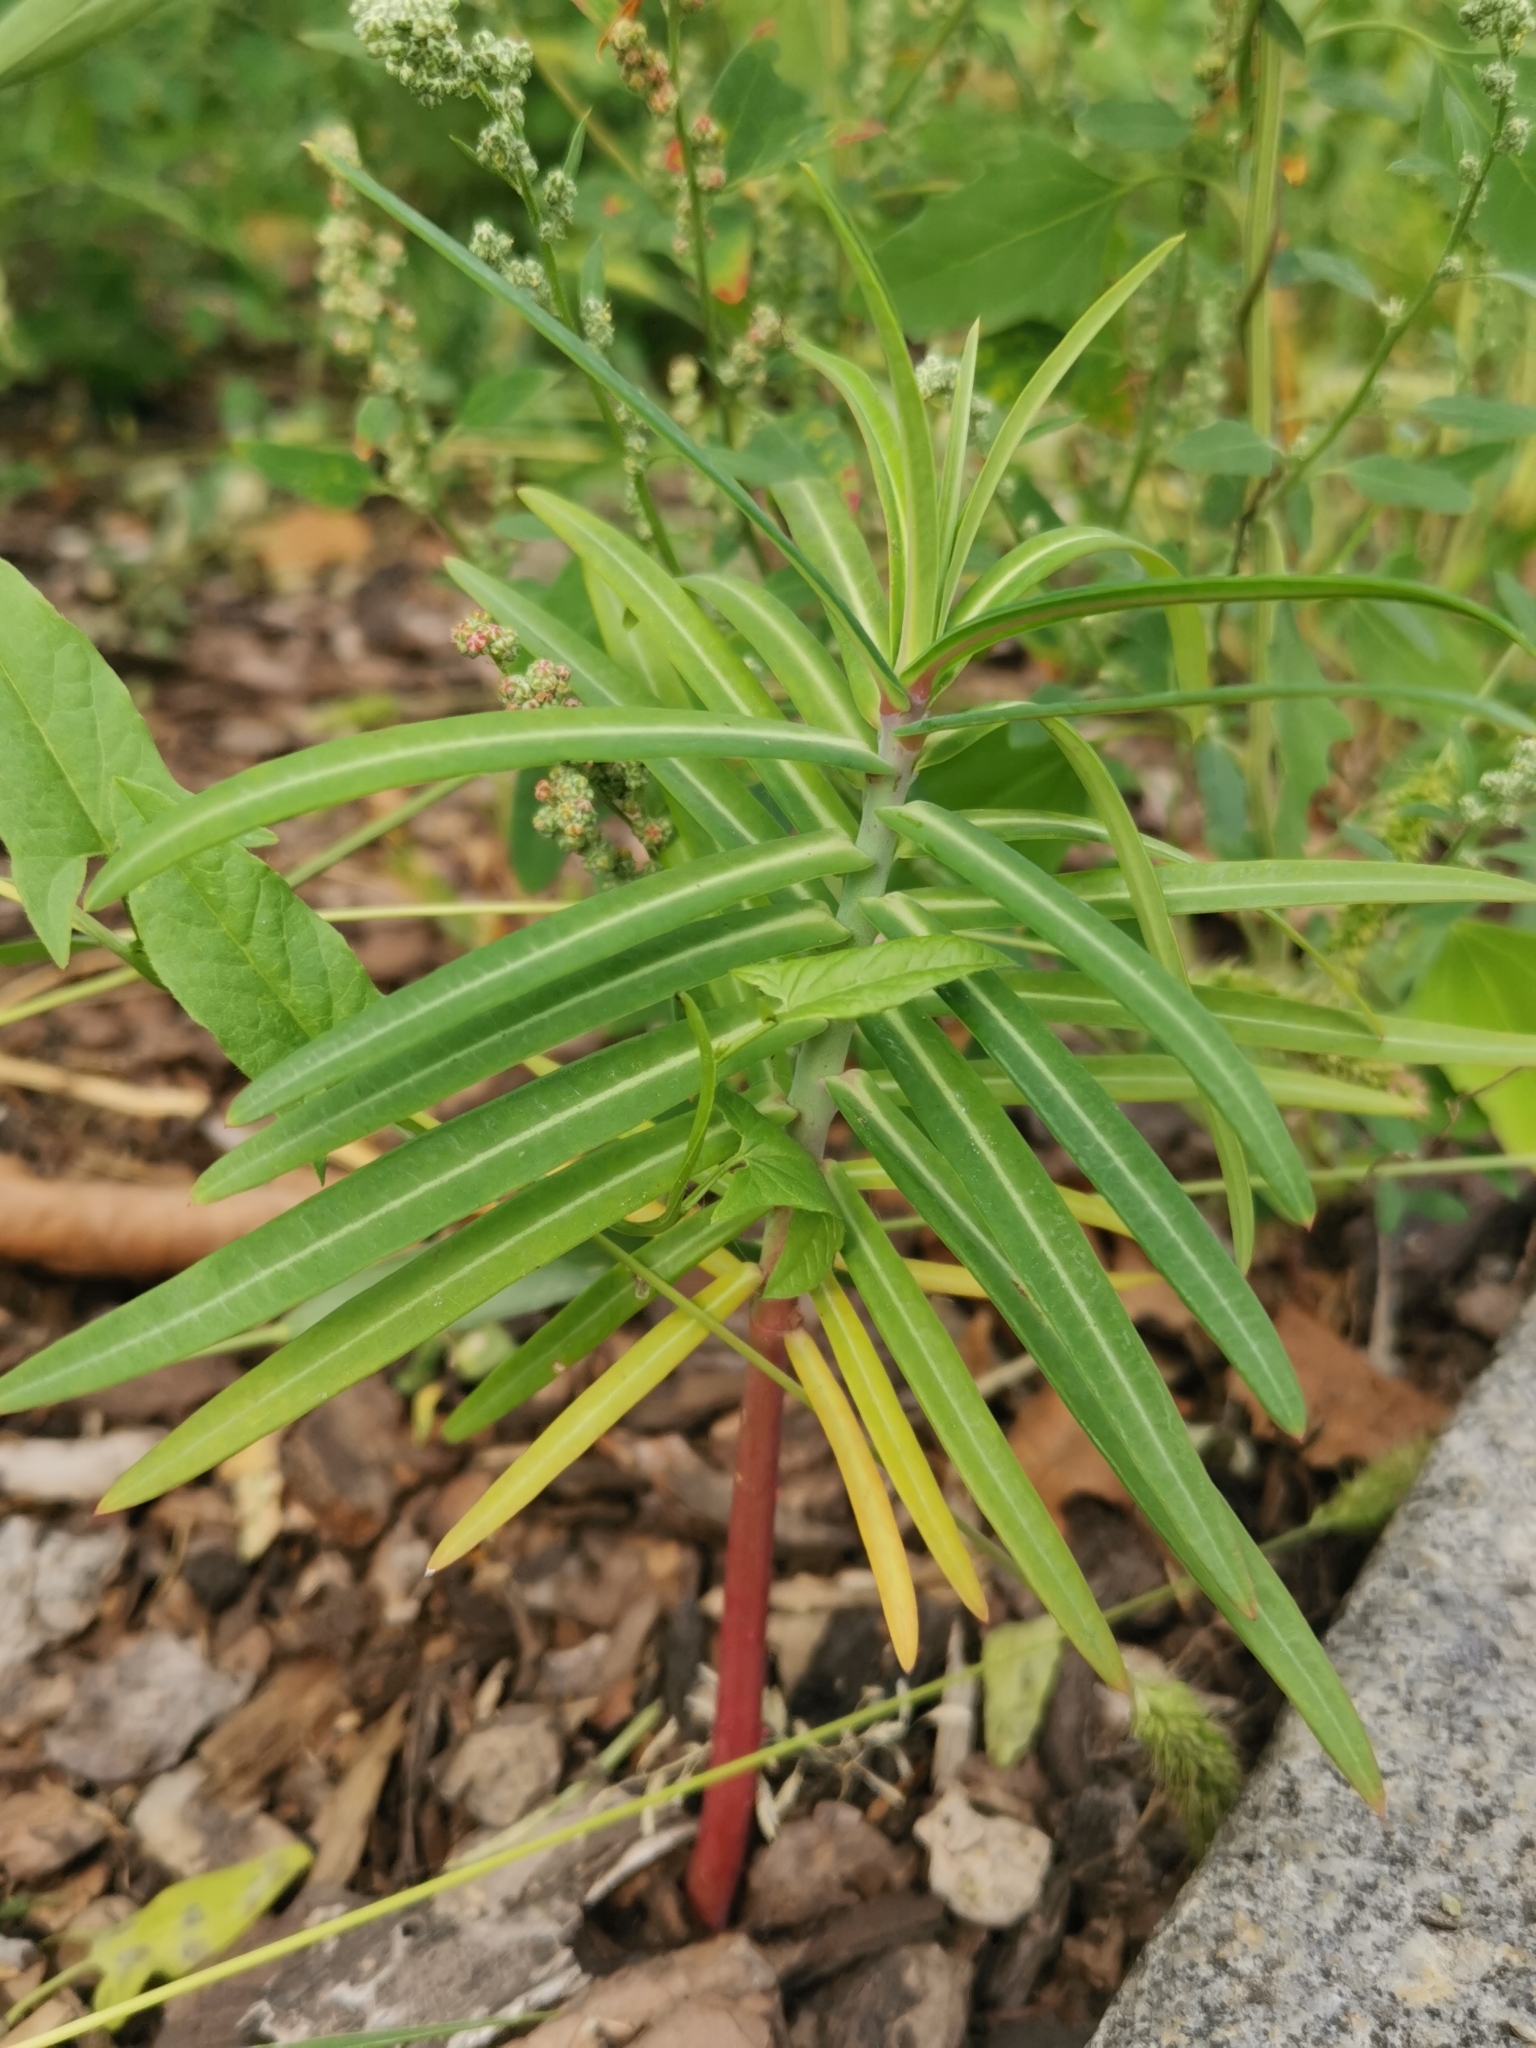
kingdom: Plantae
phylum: Tracheophyta
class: Magnoliopsida
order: Malpighiales
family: Euphorbiaceae
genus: Euphorbia
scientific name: Euphorbia lathyris
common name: Caper spurge
